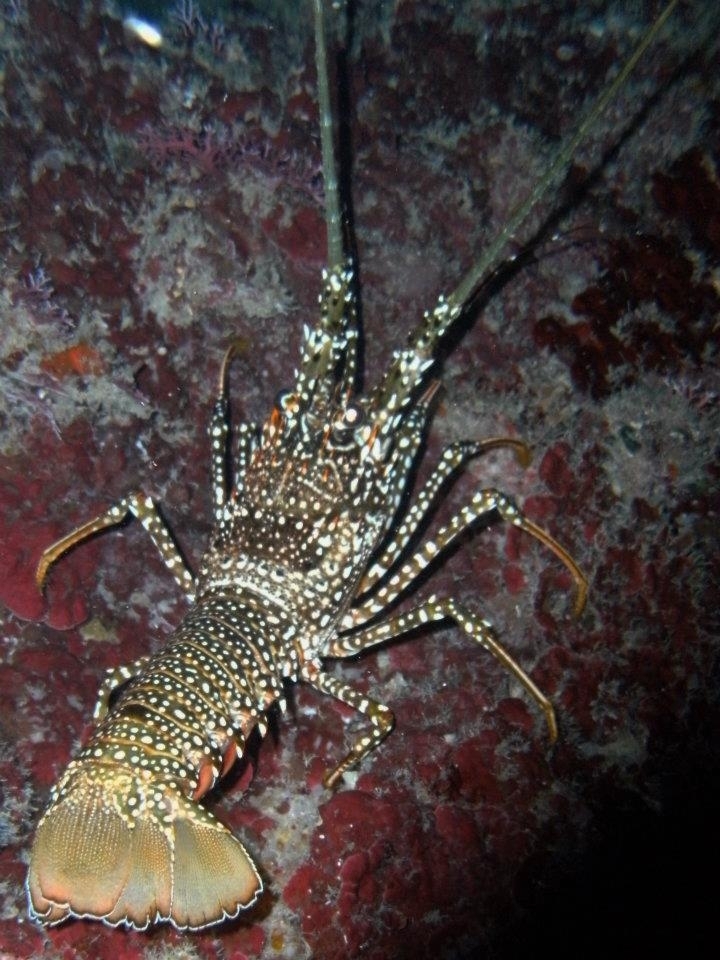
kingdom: Animalia
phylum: Arthropoda
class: Malacostraca
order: Decapoda
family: Palinuridae
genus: Panulirus
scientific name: Panulirus guttatus
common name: Spotted spiny lobster
